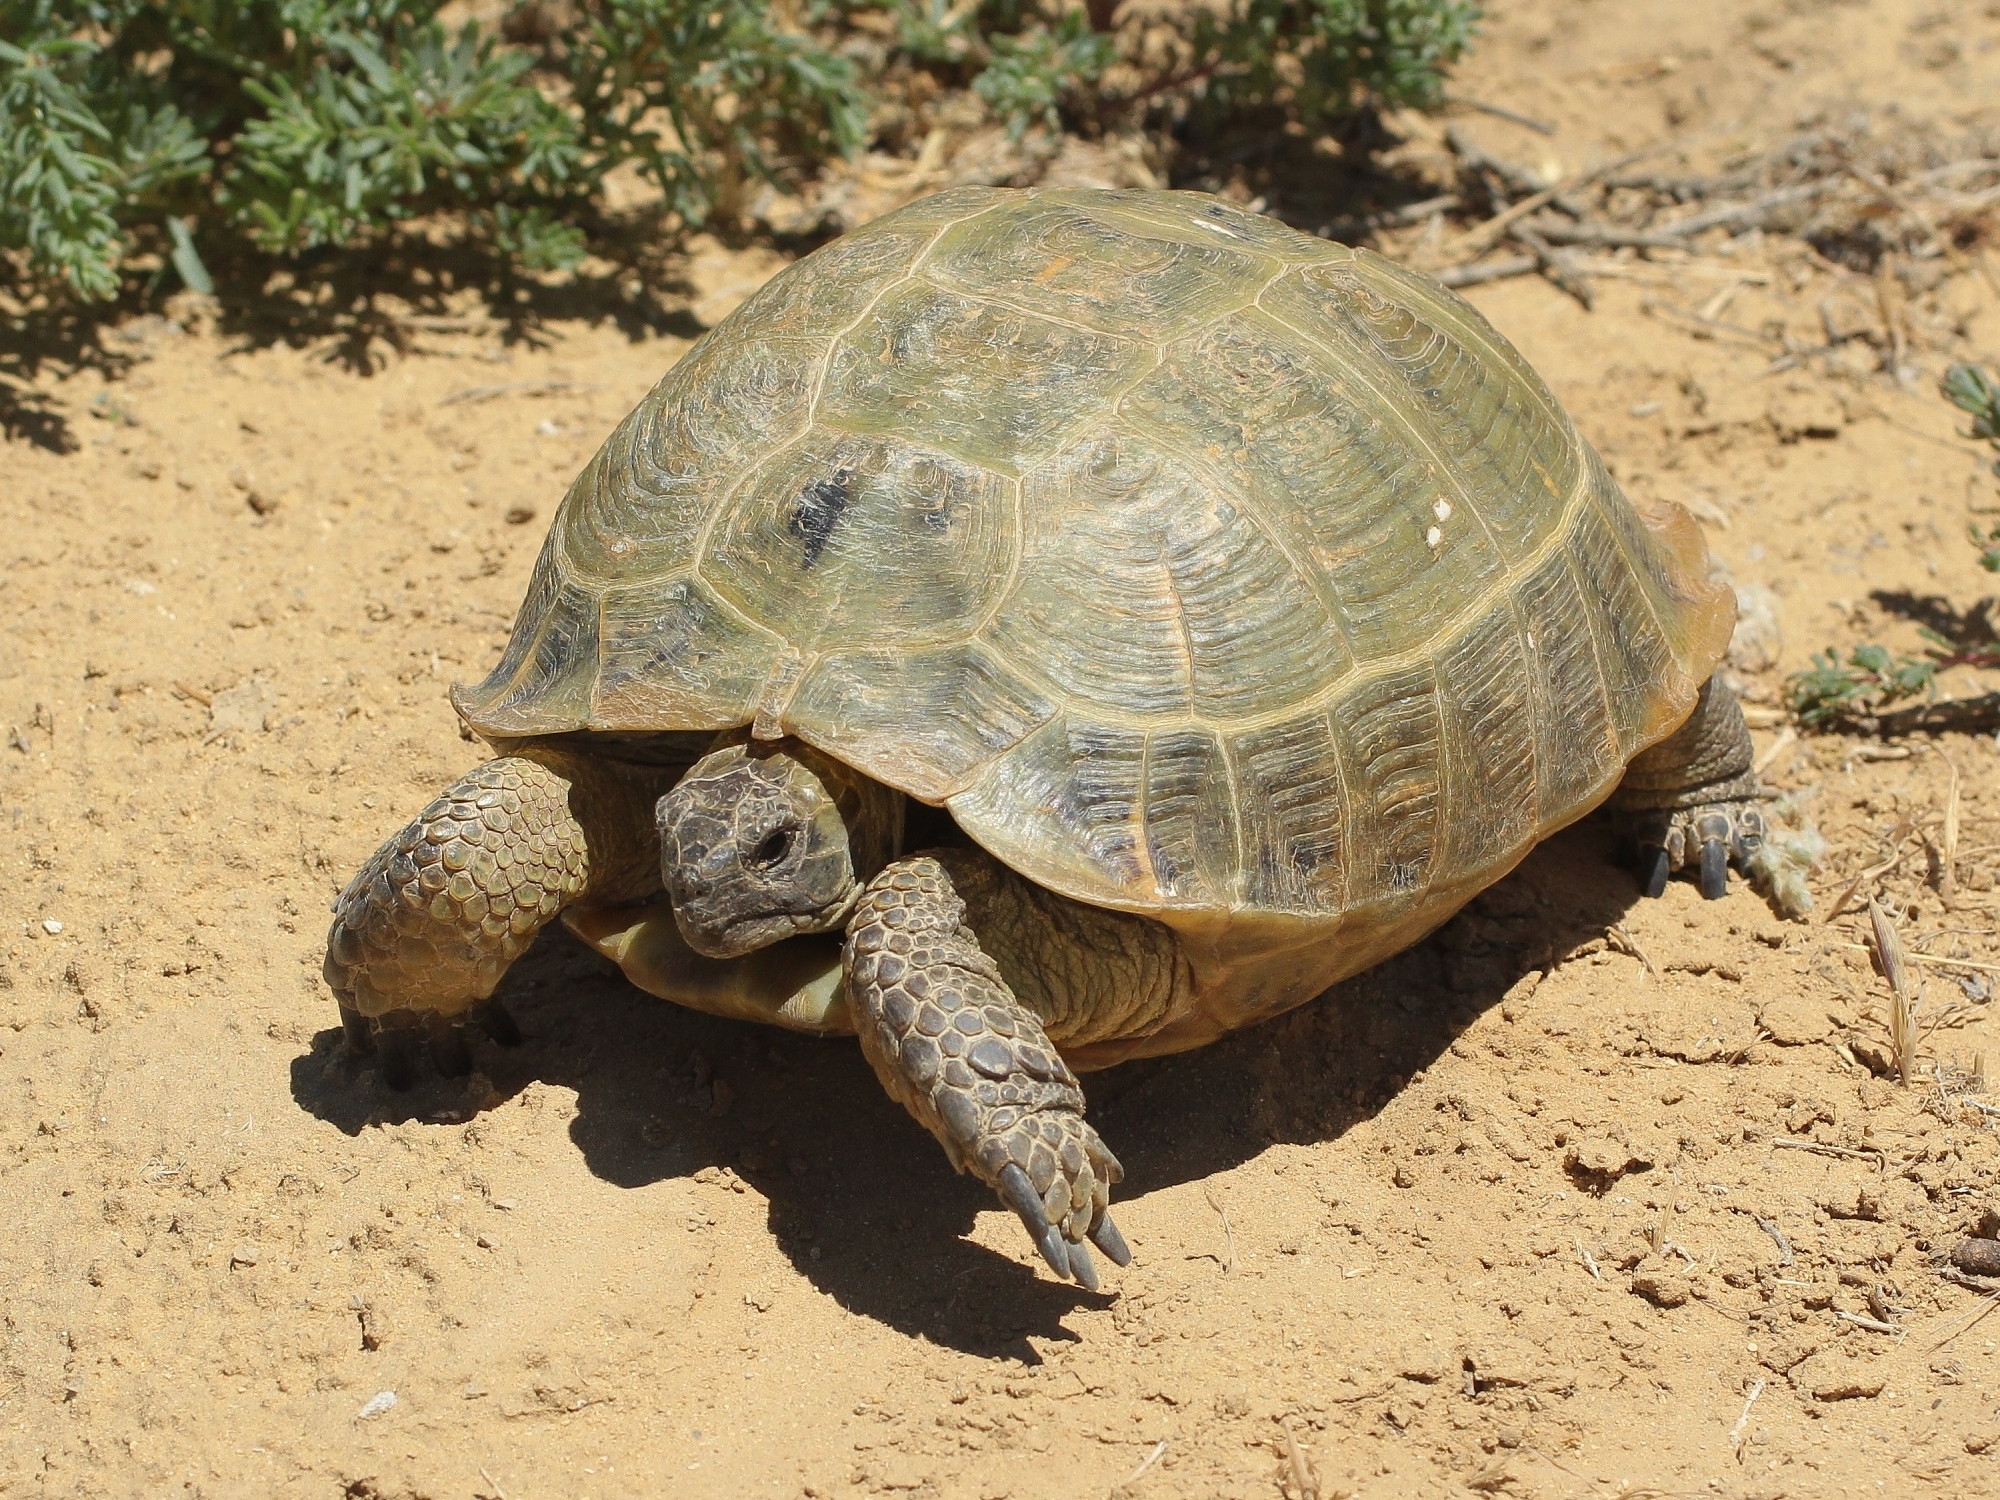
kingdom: Animalia
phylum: Chordata
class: Testudines
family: Testudinidae
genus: Testudo
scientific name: Testudo horsfieldii
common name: Central asia tortoise
